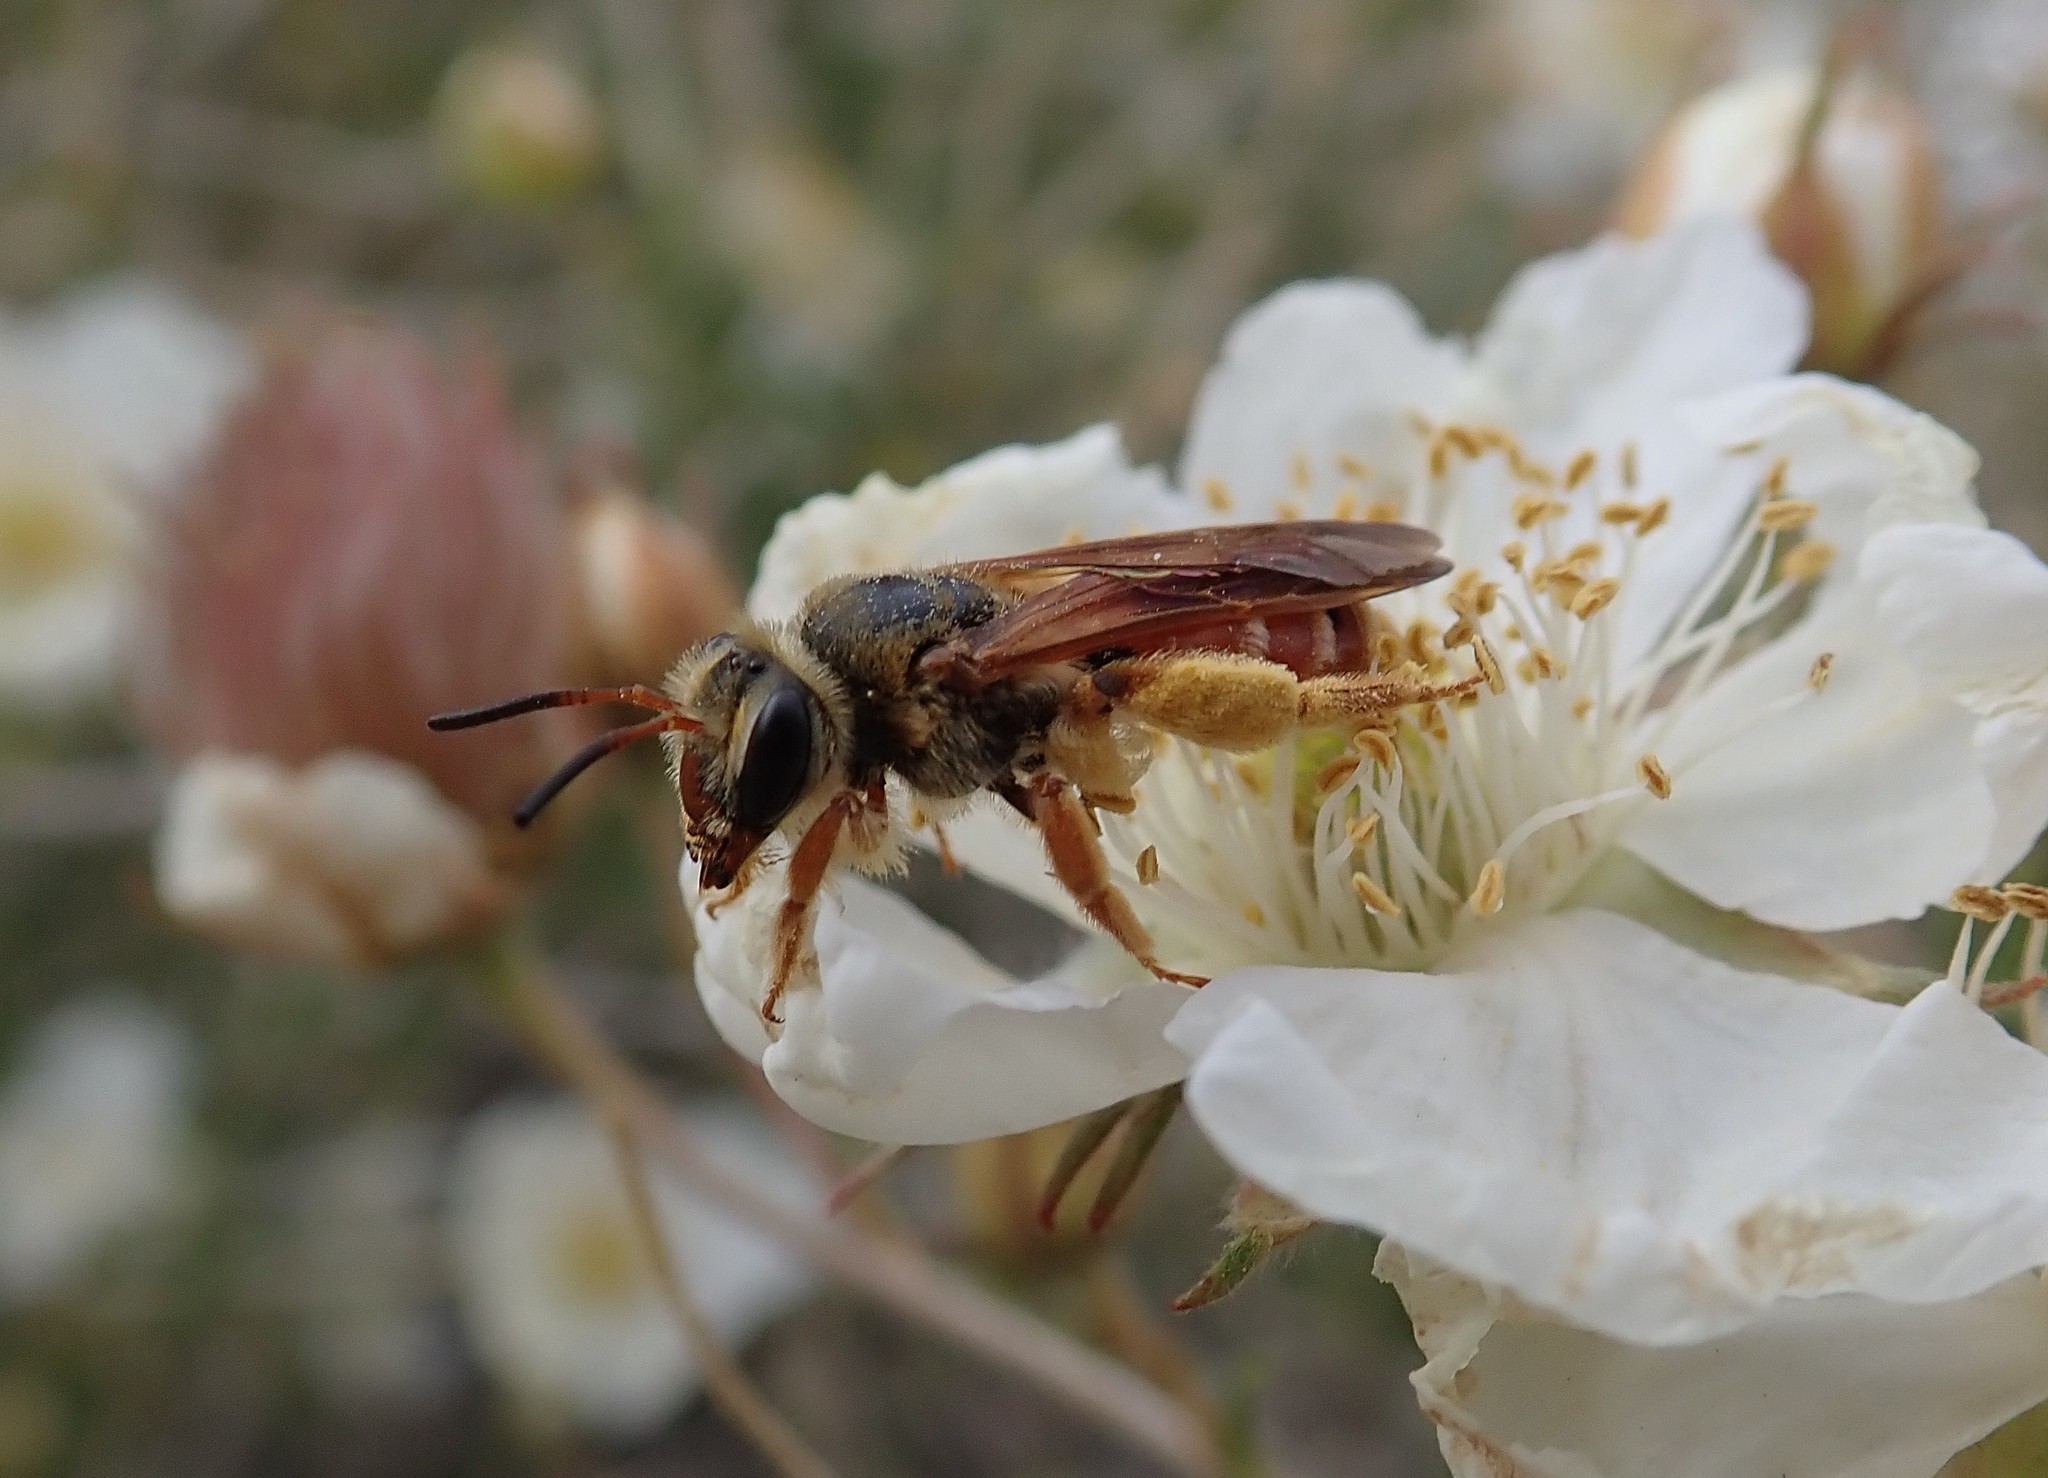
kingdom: Animalia
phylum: Arthropoda
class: Insecta
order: Hymenoptera
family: Andrenidae
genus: Andrena
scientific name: Andrena prunorum
